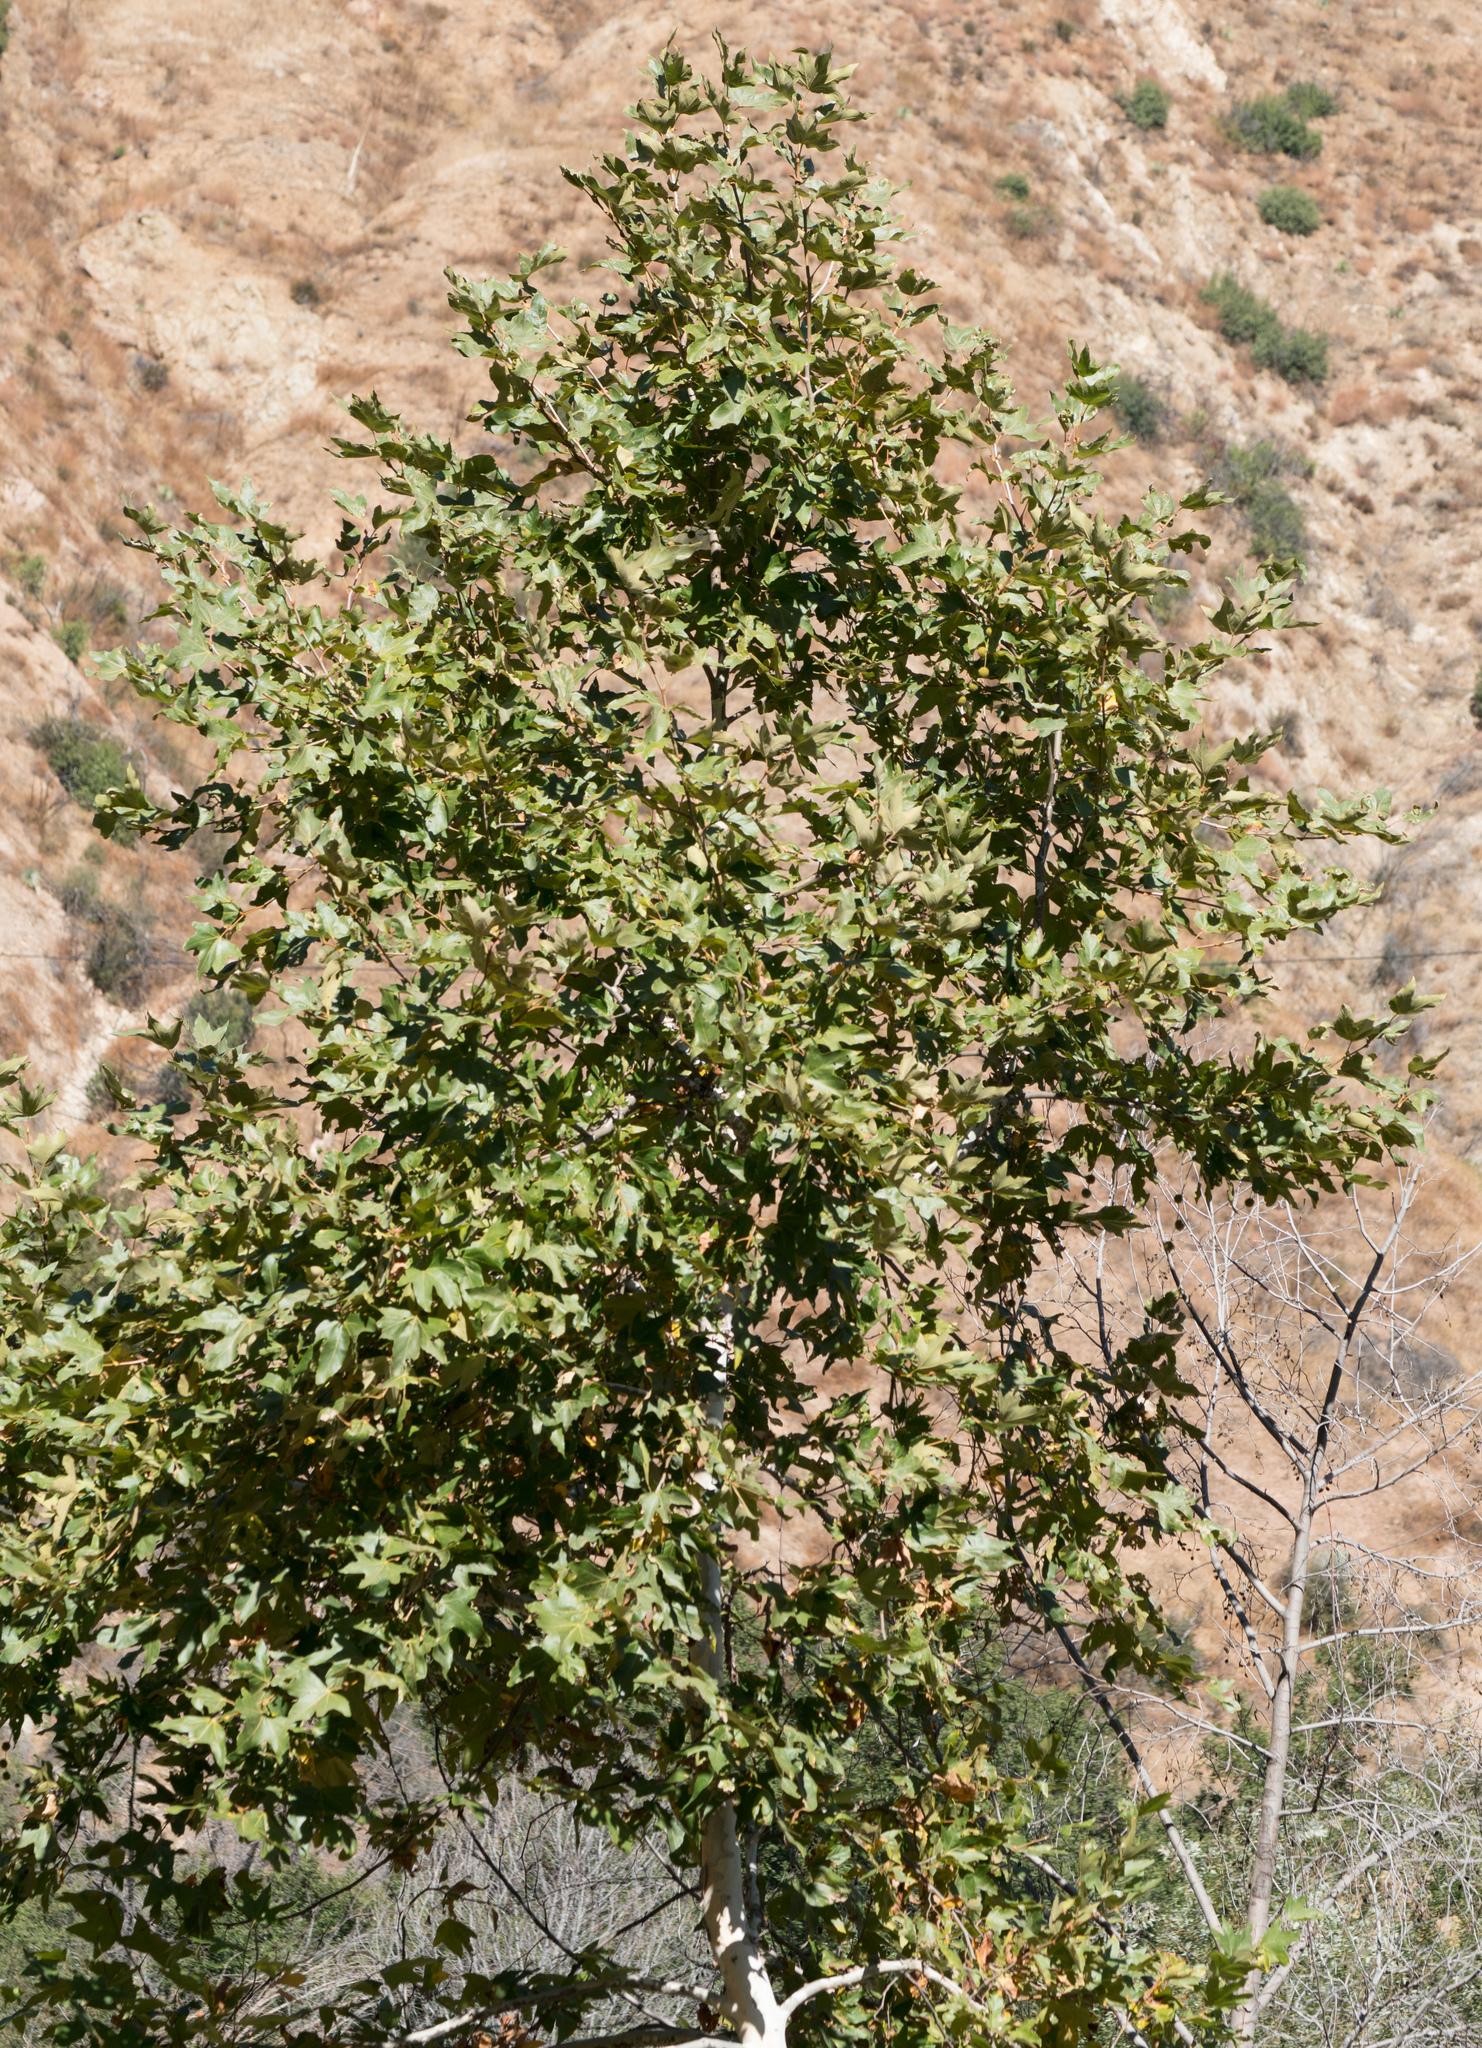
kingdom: Plantae
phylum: Tracheophyta
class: Magnoliopsida
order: Proteales
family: Platanaceae
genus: Platanus
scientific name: Platanus racemosa
